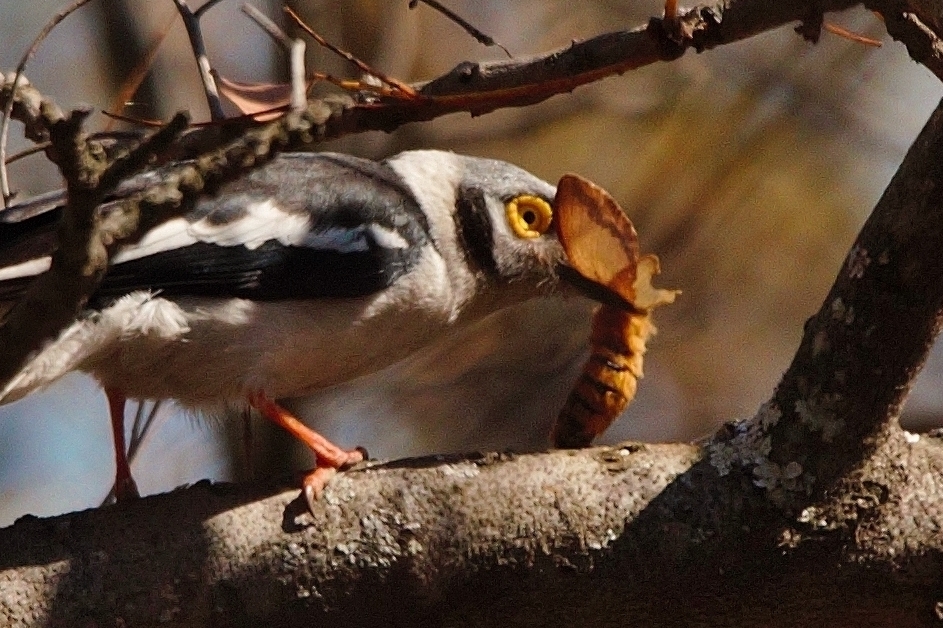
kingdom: Animalia
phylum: Chordata
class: Aves
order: Passeriformes
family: Prionopidae
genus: Prionops
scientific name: Prionops plumatus
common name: White-crested helmetshrike
